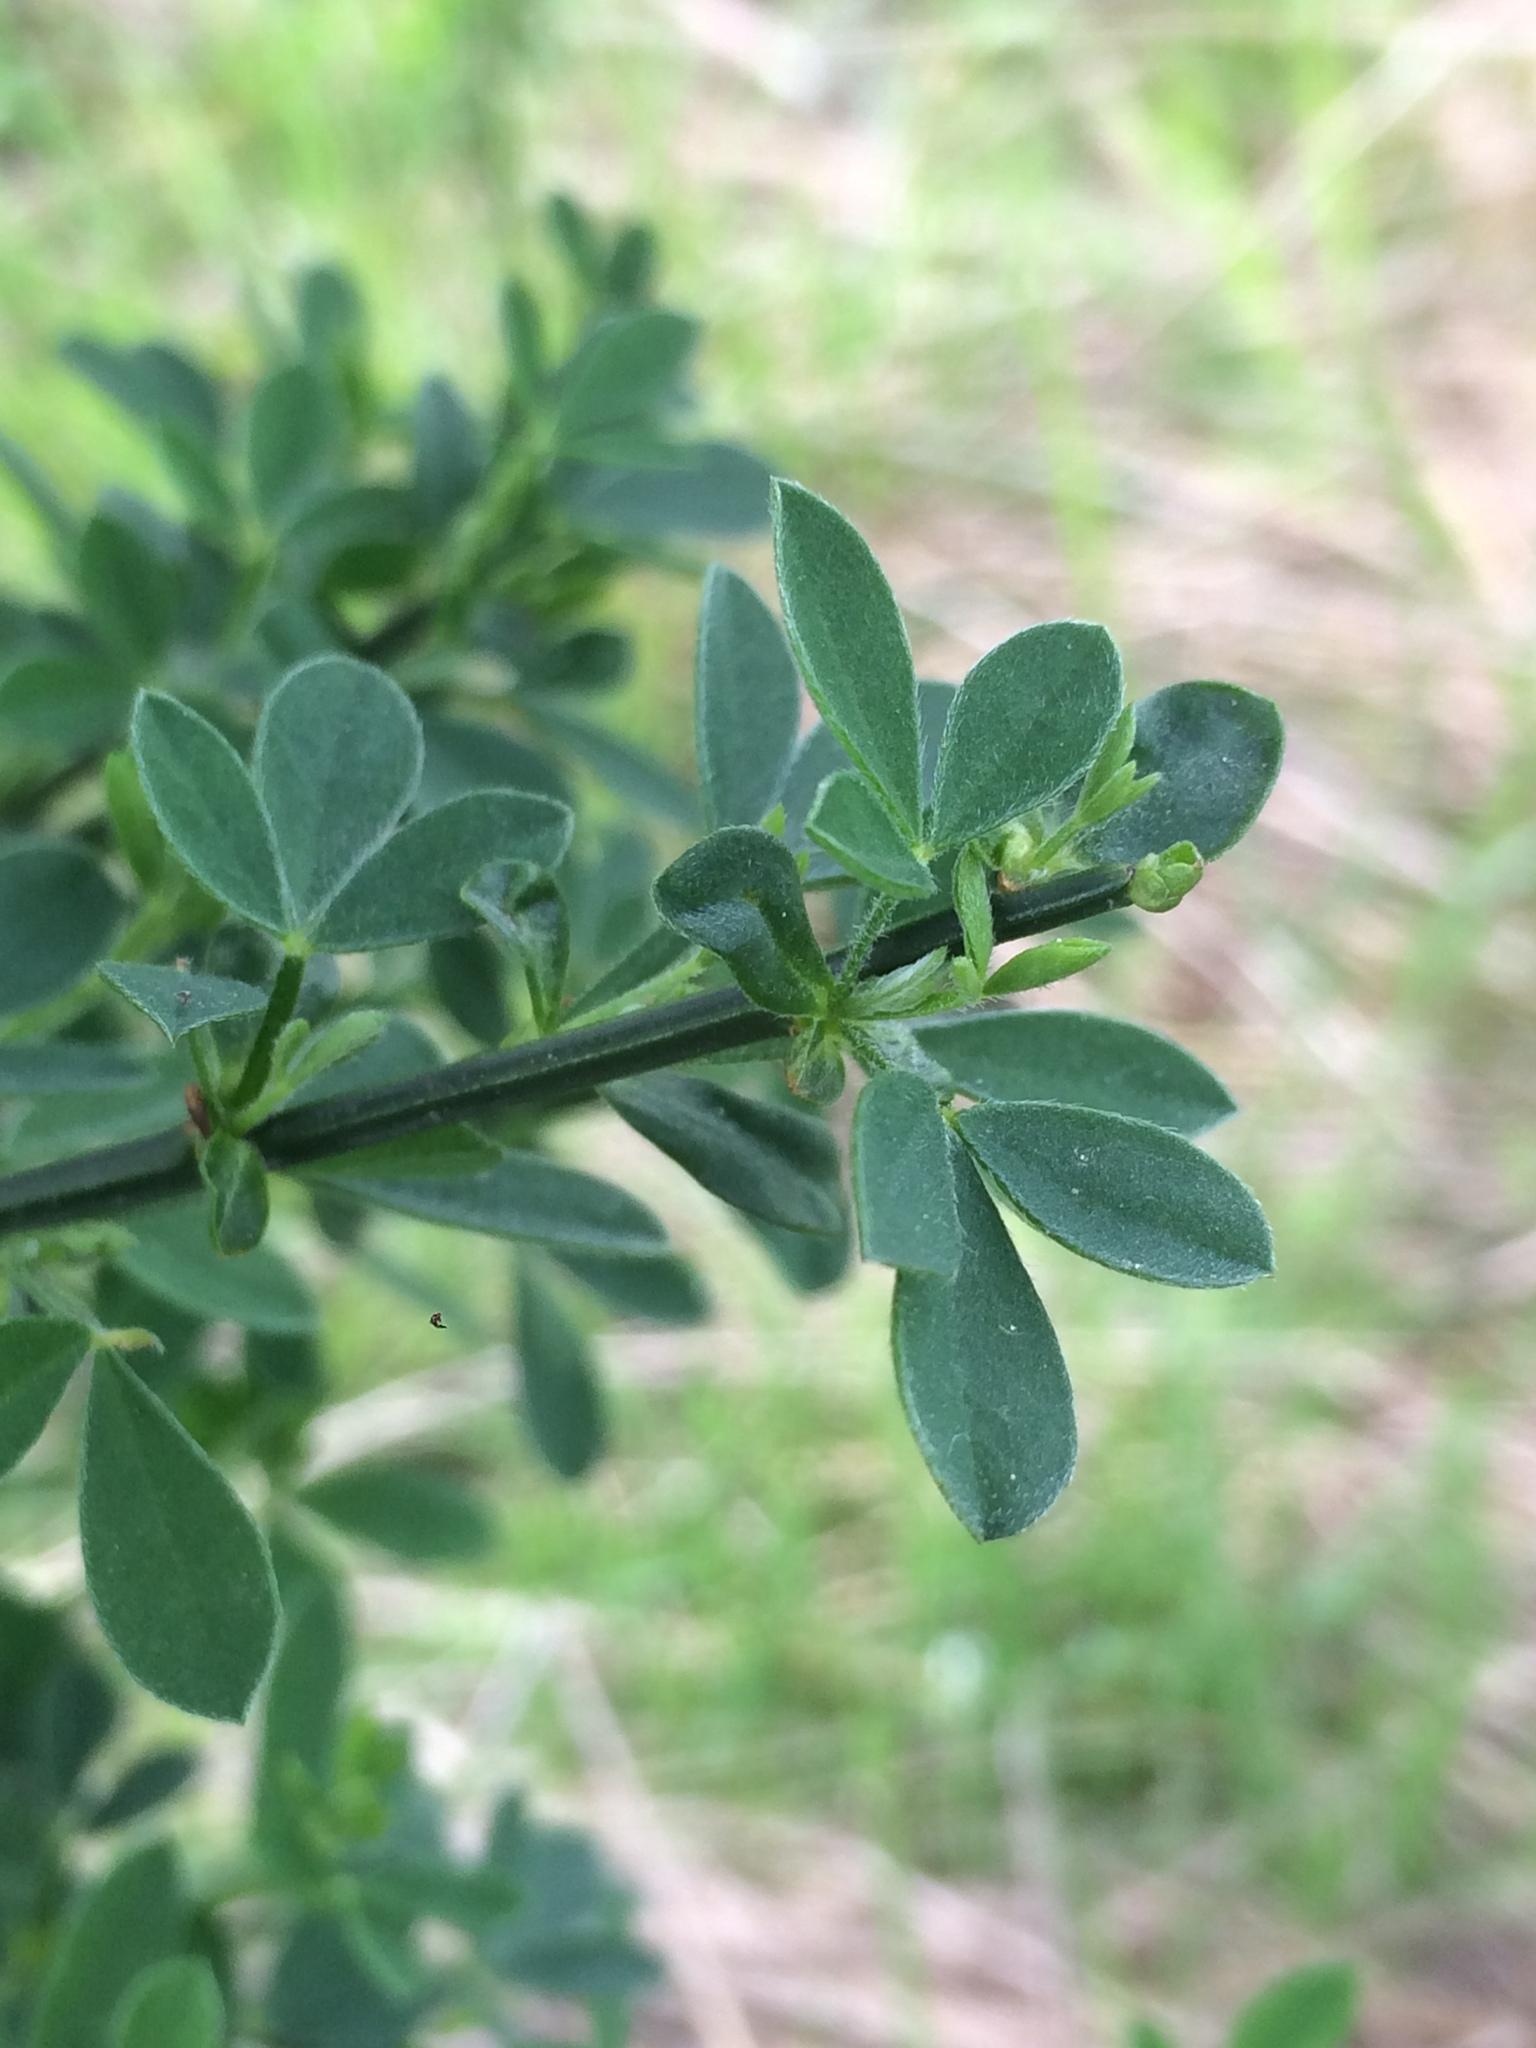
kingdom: Plantae
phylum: Tracheophyta
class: Magnoliopsida
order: Fabales
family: Fabaceae
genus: Cytisus
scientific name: Cytisus scoparius
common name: Scotch broom
